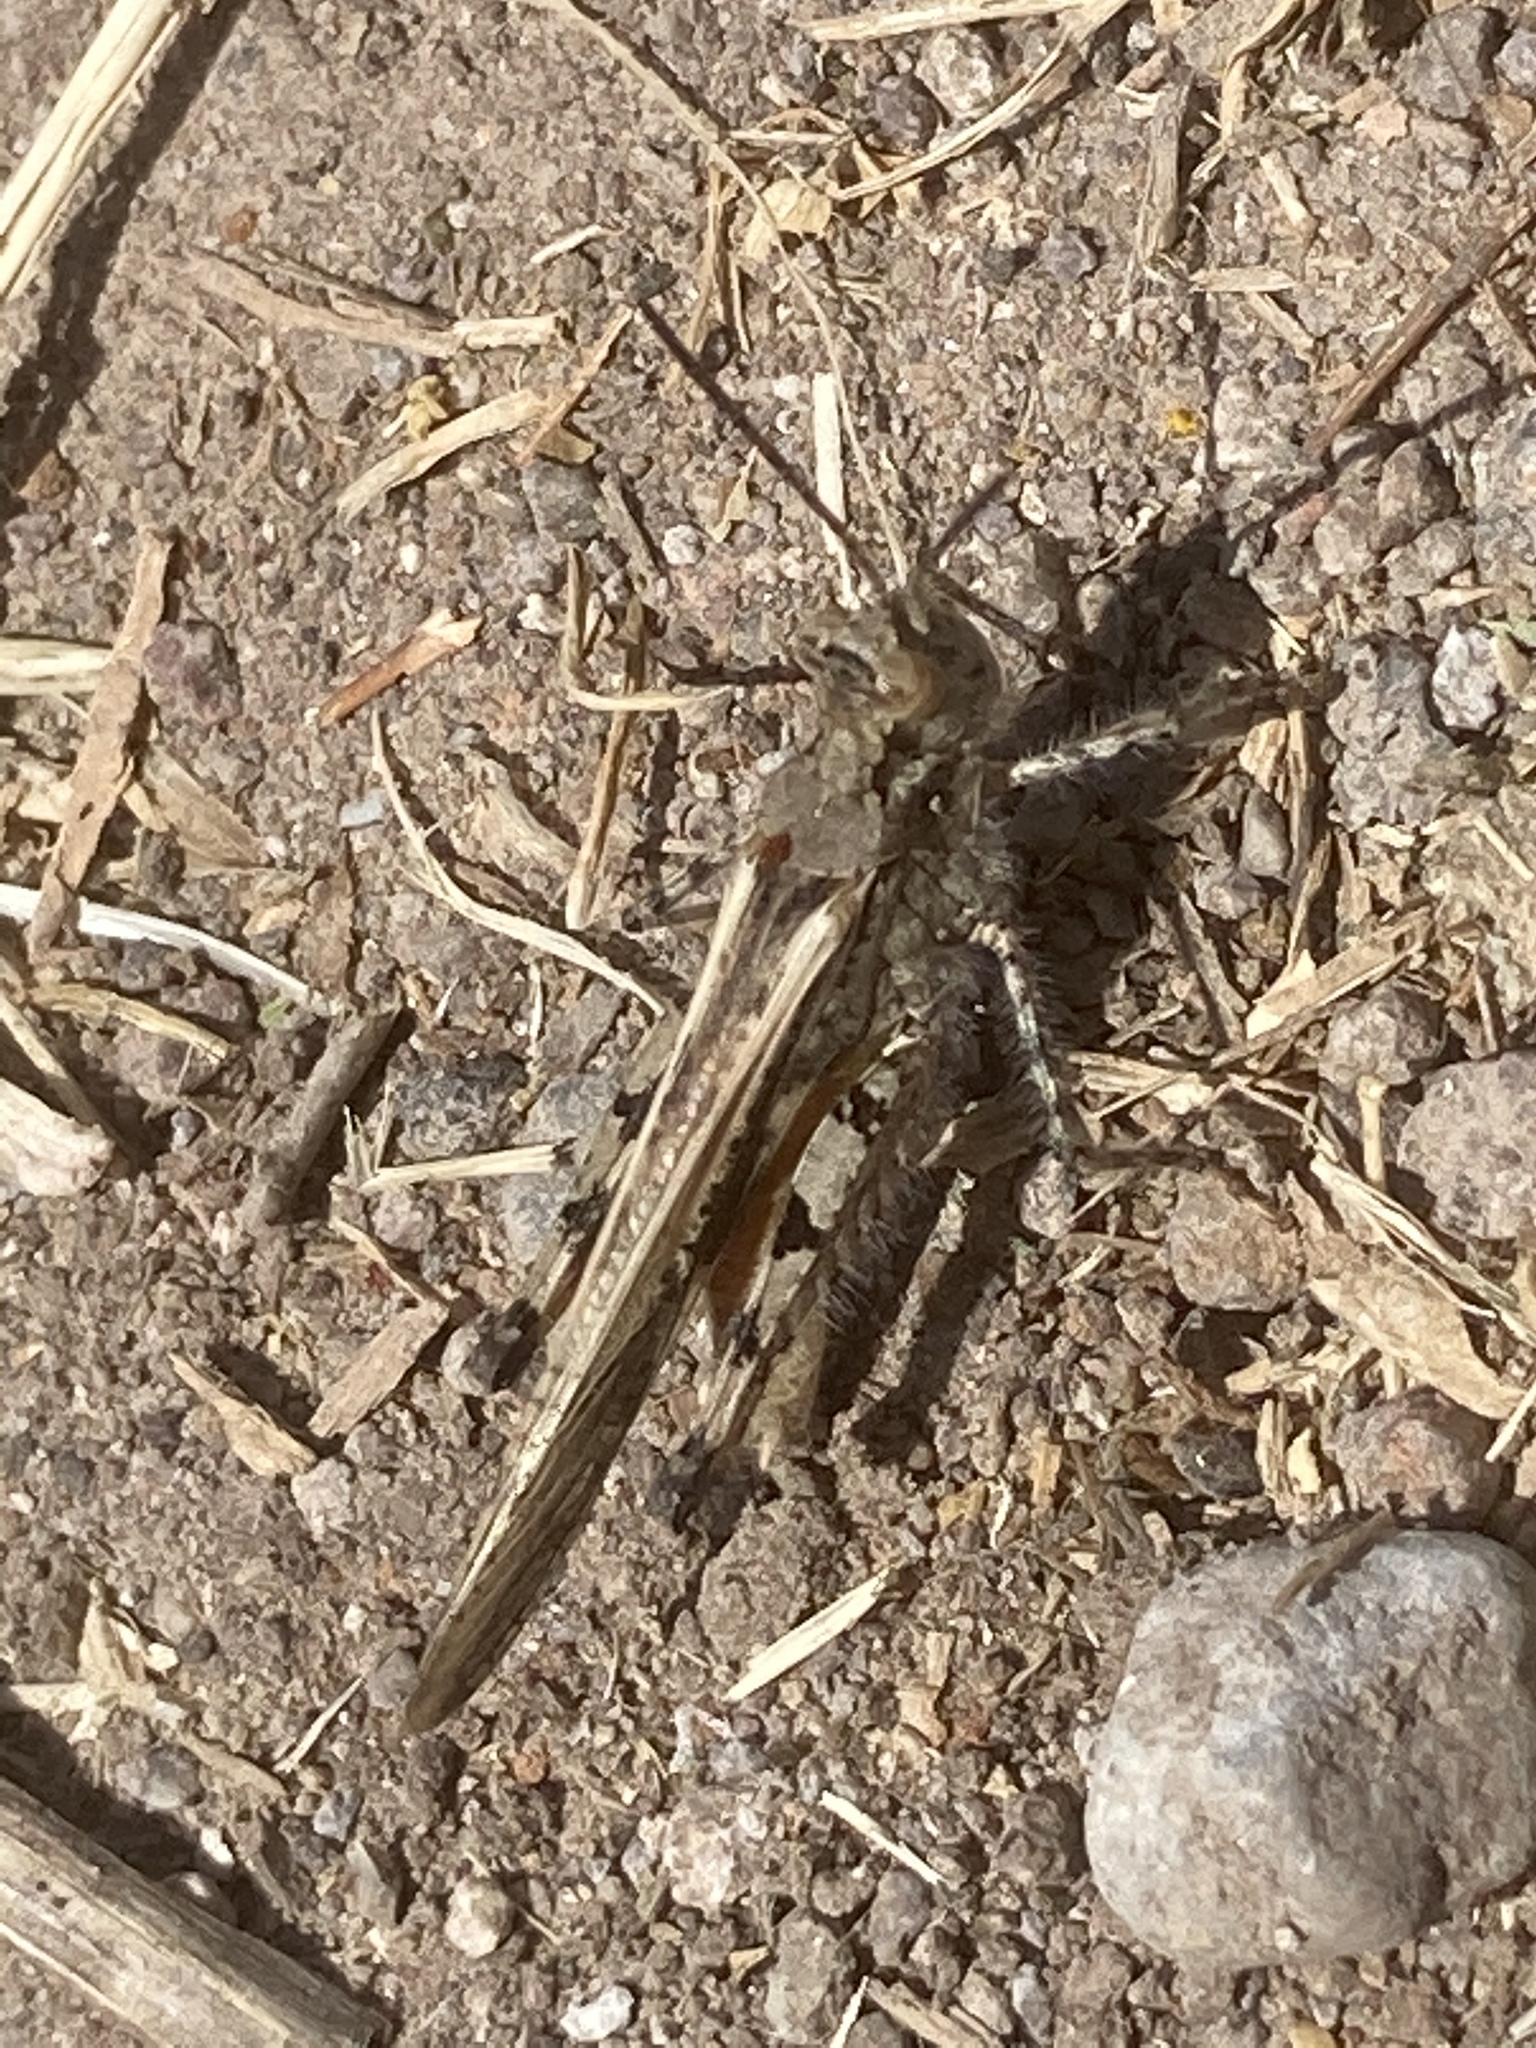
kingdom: Animalia
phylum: Arthropoda
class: Insecta
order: Orthoptera
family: Acrididae
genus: Acrotylus
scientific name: Acrotylus patruelis
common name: Slender burrowing grasshopper
